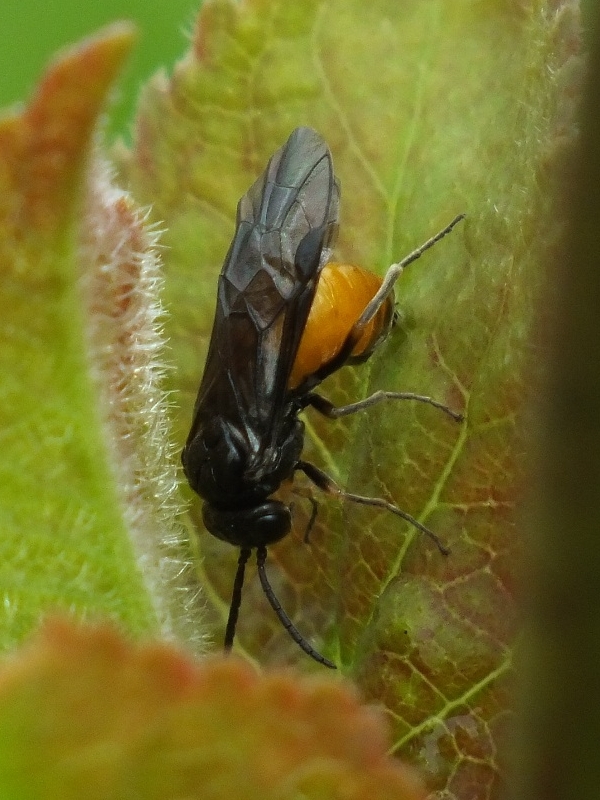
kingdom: Animalia
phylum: Arthropoda
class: Insecta
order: Hymenoptera
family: Tenthredinidae
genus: Eurhadinoceraea
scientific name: Eurhadinoceraea ventralis
